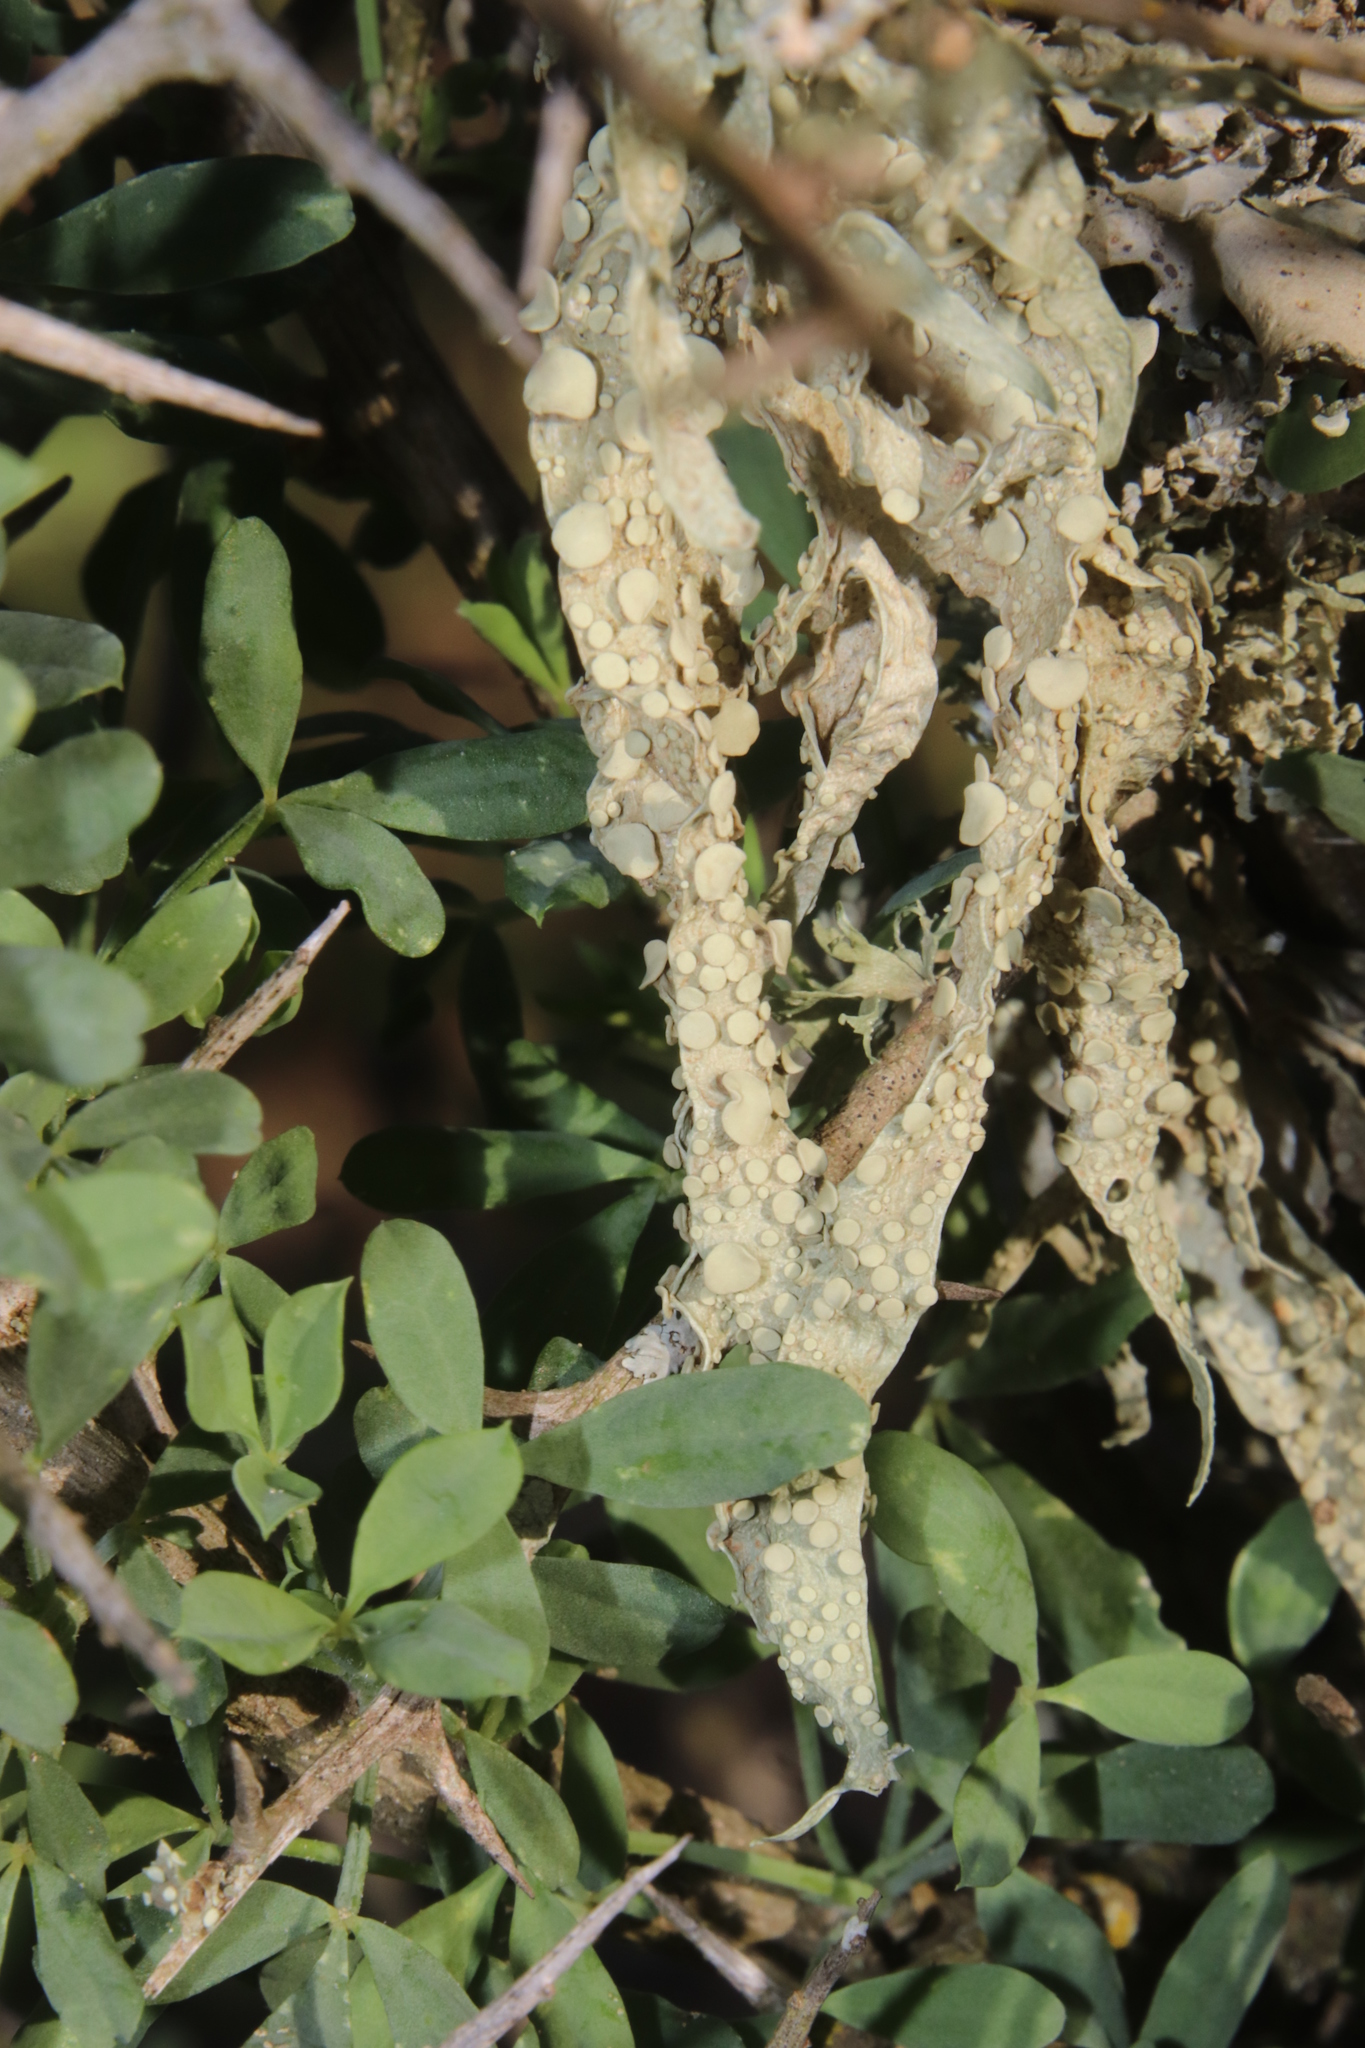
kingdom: Fungi
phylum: Ascomycota
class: Lecanoromycetes
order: Lecanorales
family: Ramalinaceae
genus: Ramalina
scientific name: Ramalina celastri
